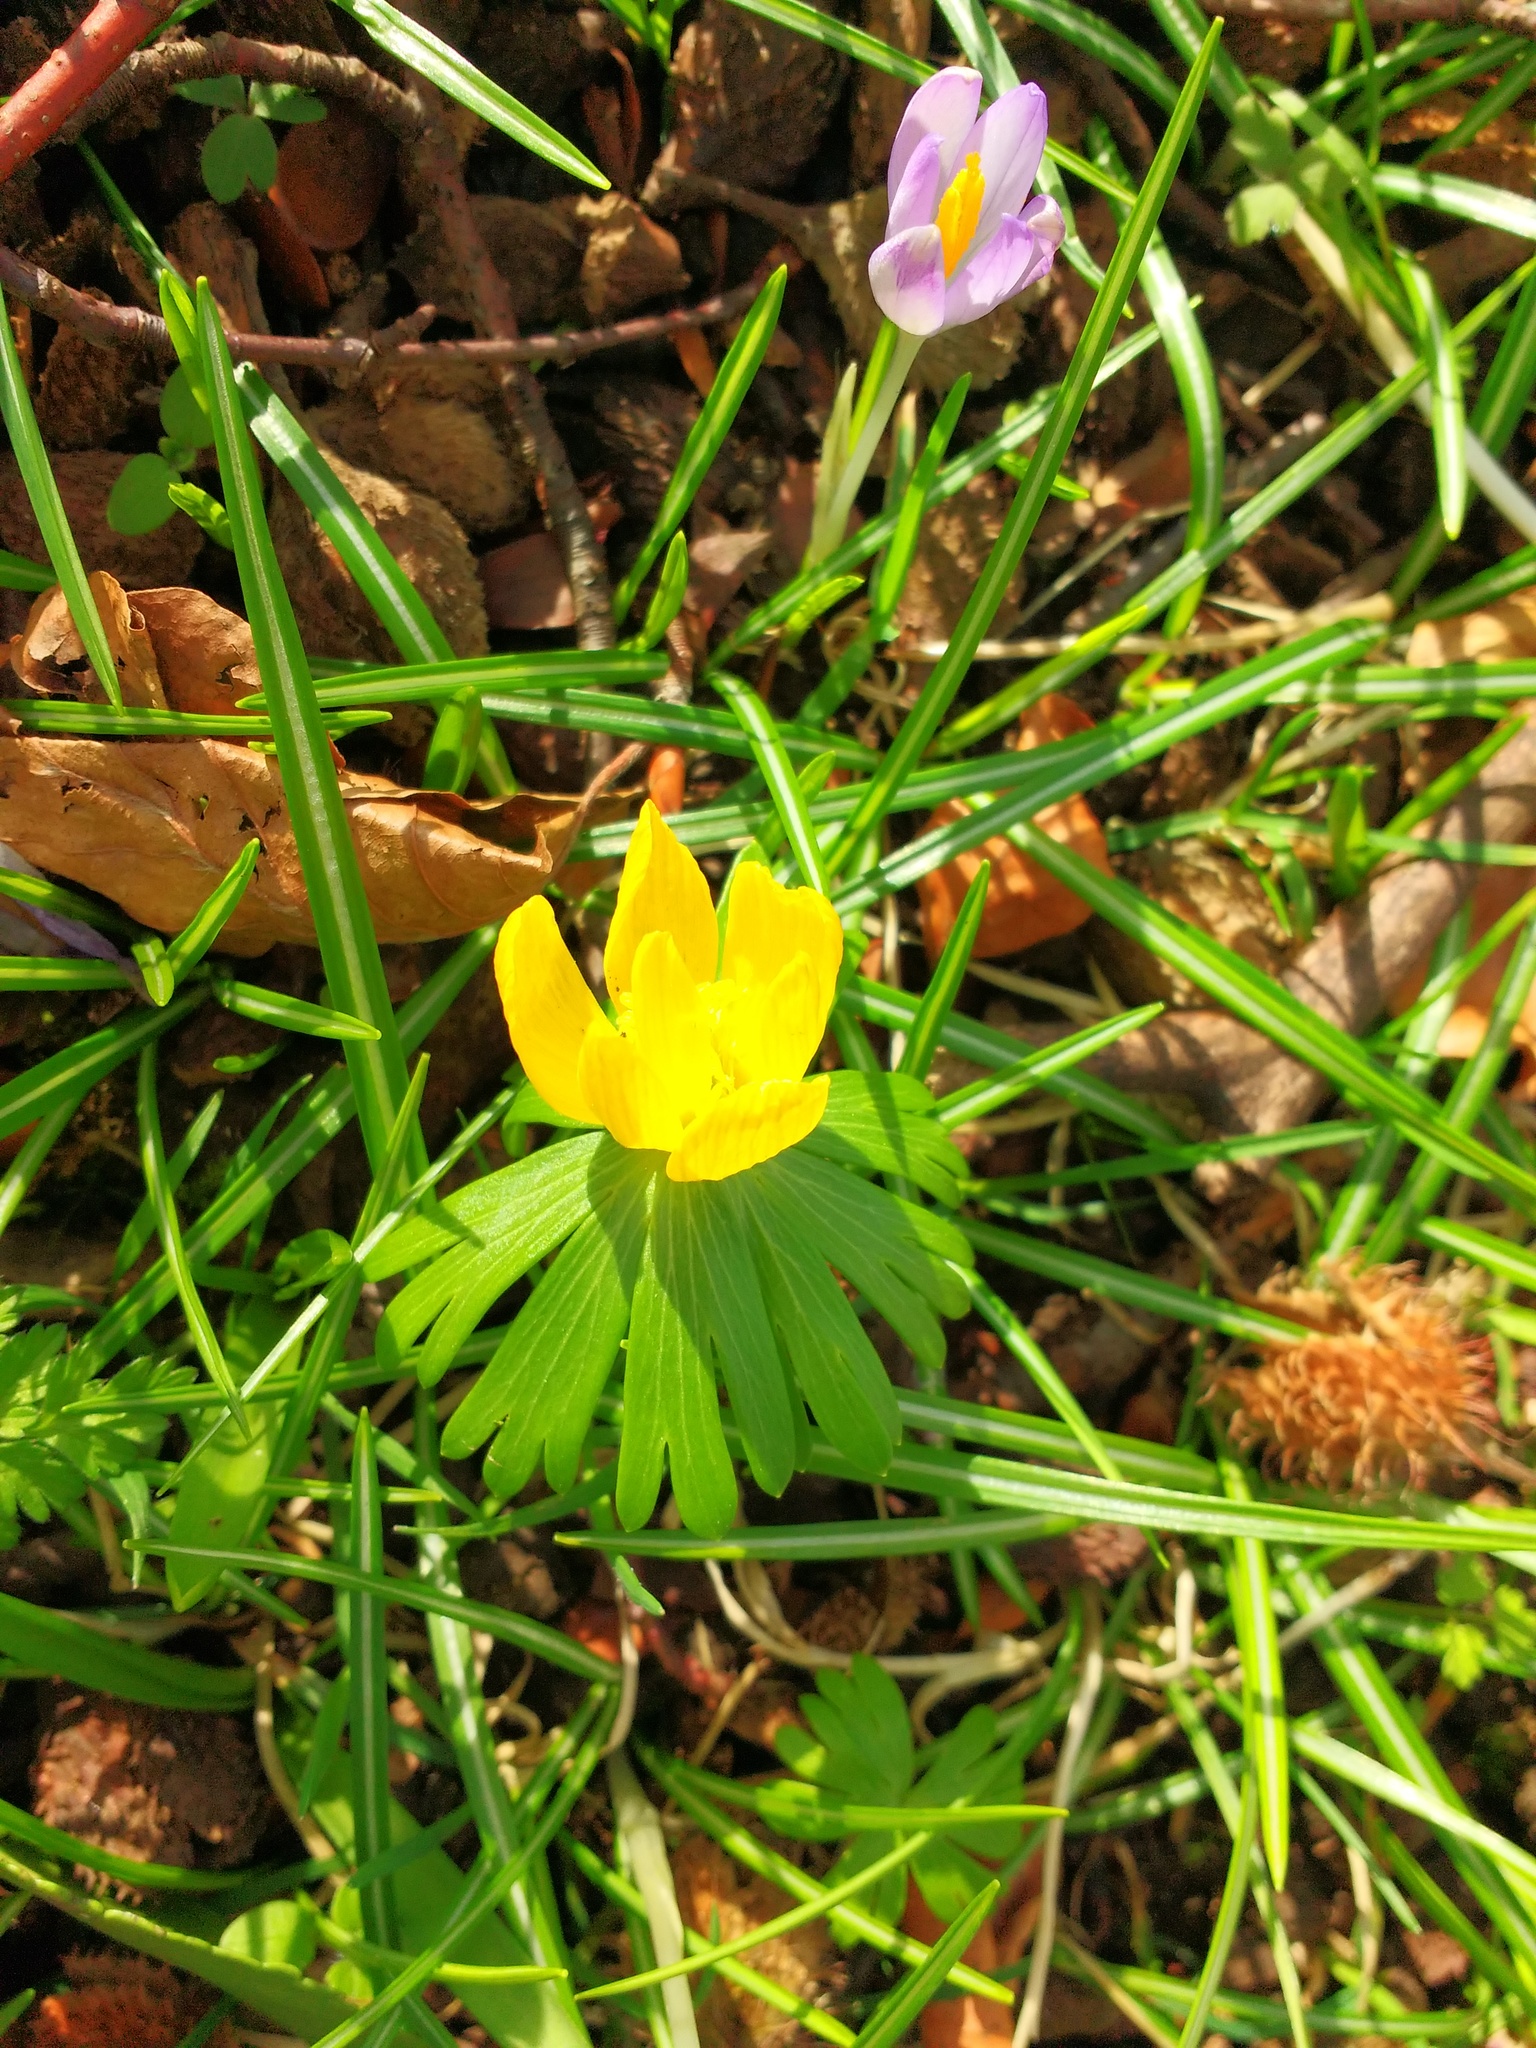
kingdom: Plantae
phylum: Tracheophyta
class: Magnoliopsida
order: Ranunculales
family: Ranunculaceae
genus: Eranthis
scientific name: Eranthis hyemalis
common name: Winter aconite
